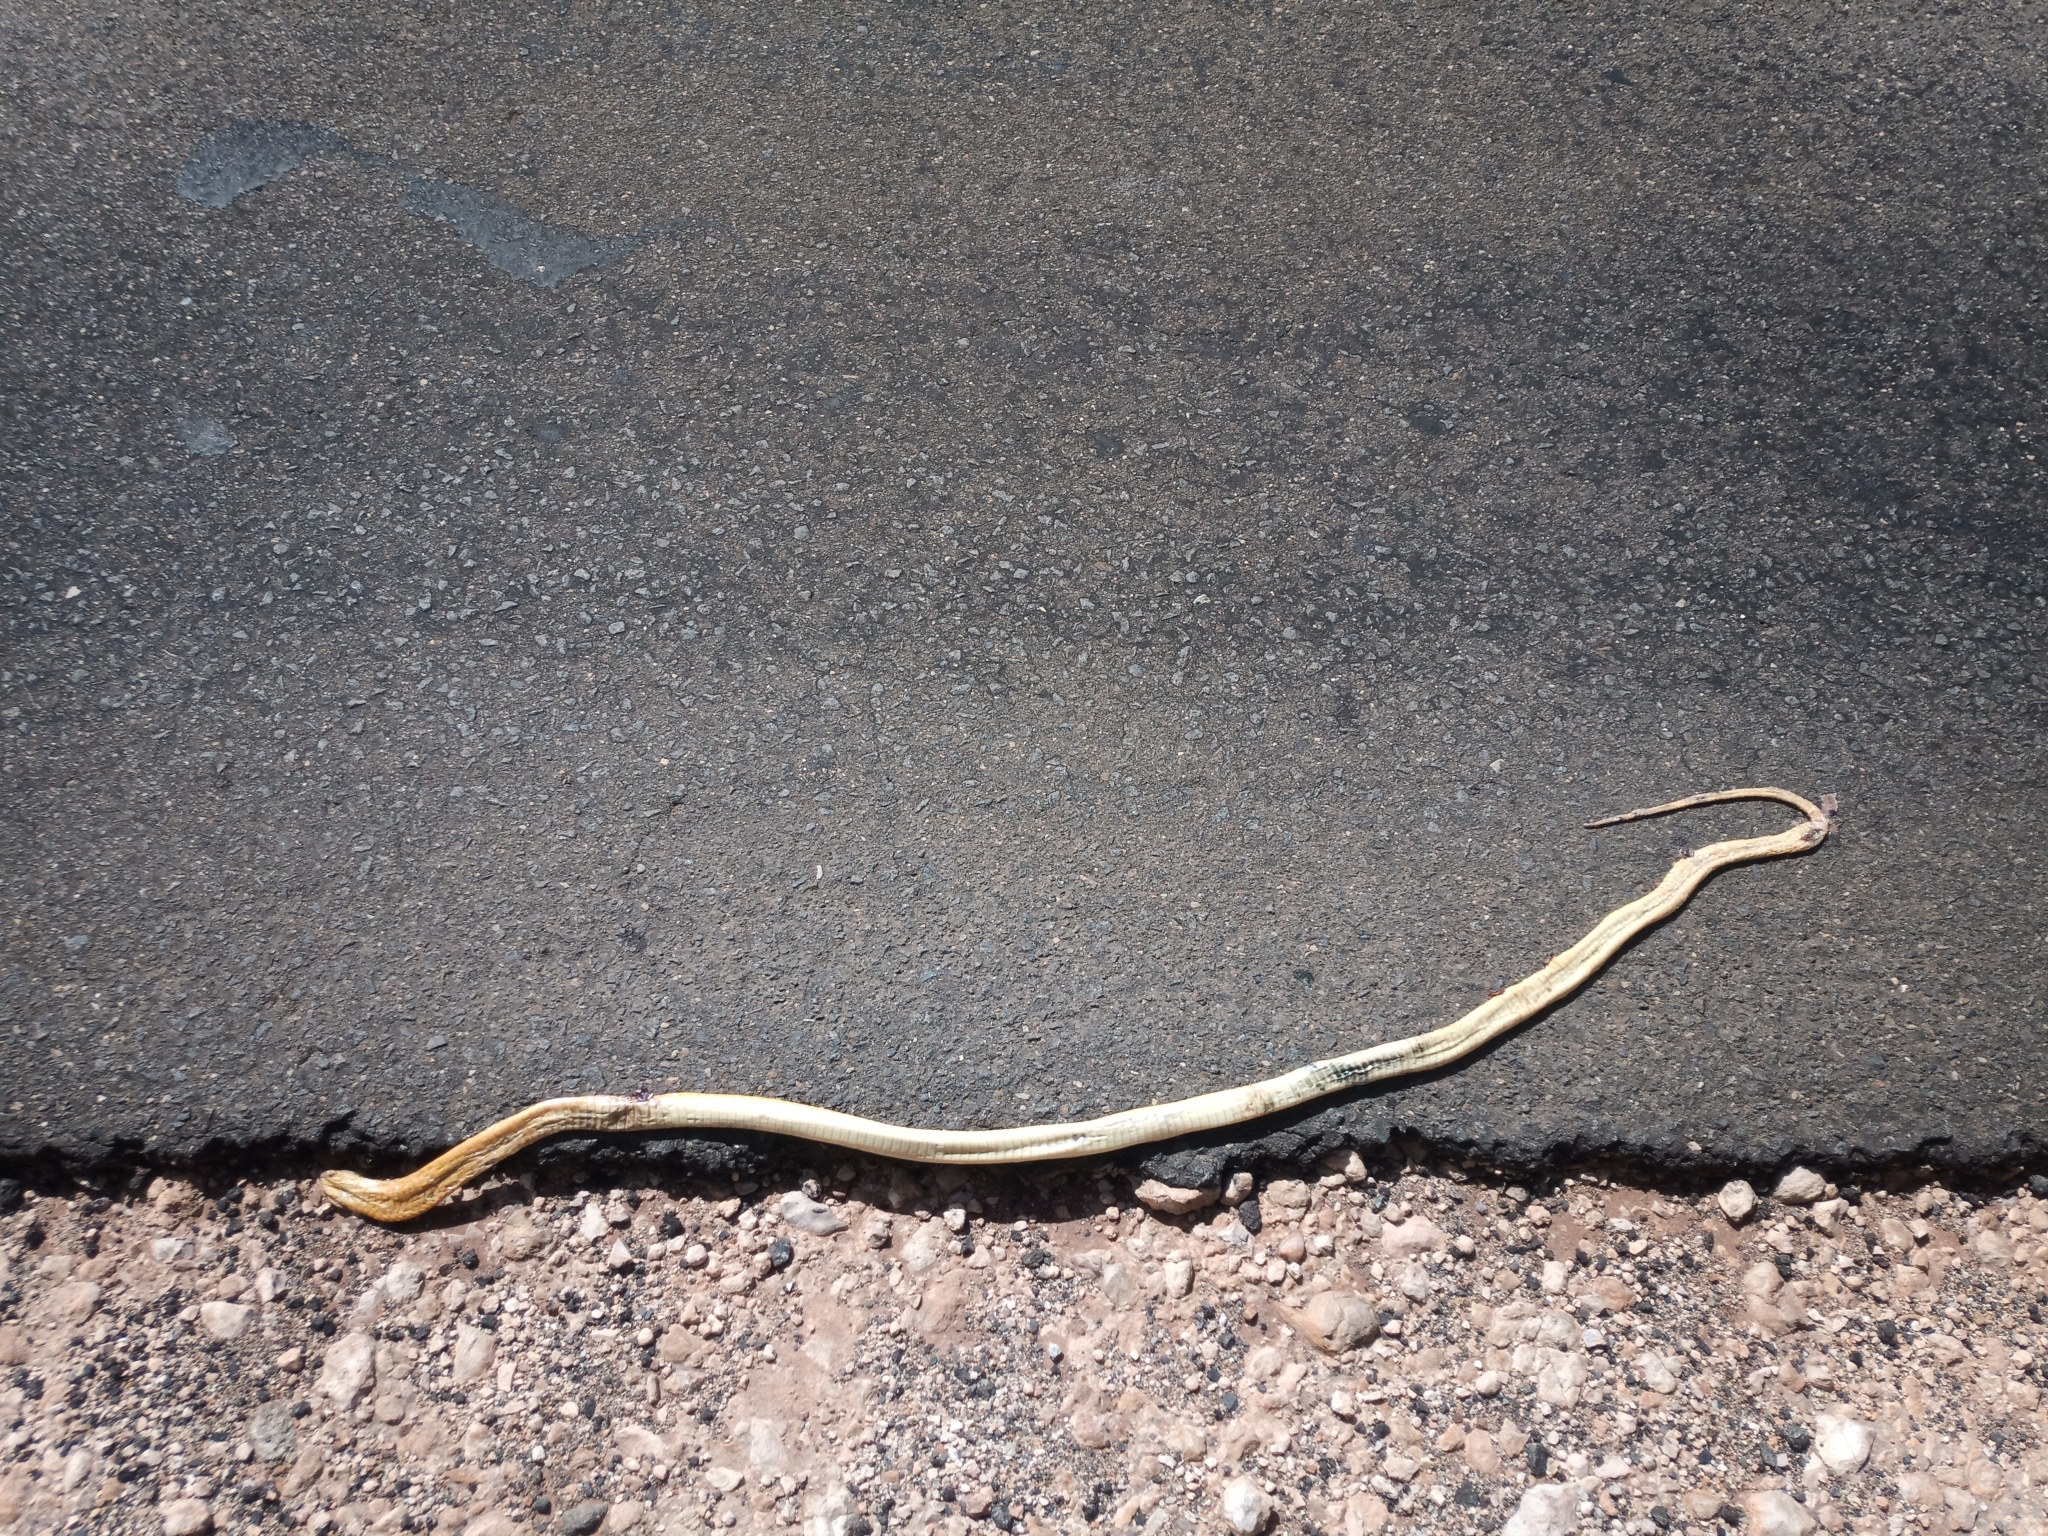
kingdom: Animalia
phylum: Chordata
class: Squamata
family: Elapidae
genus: Naja
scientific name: Naja nivea
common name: Cape cobra
